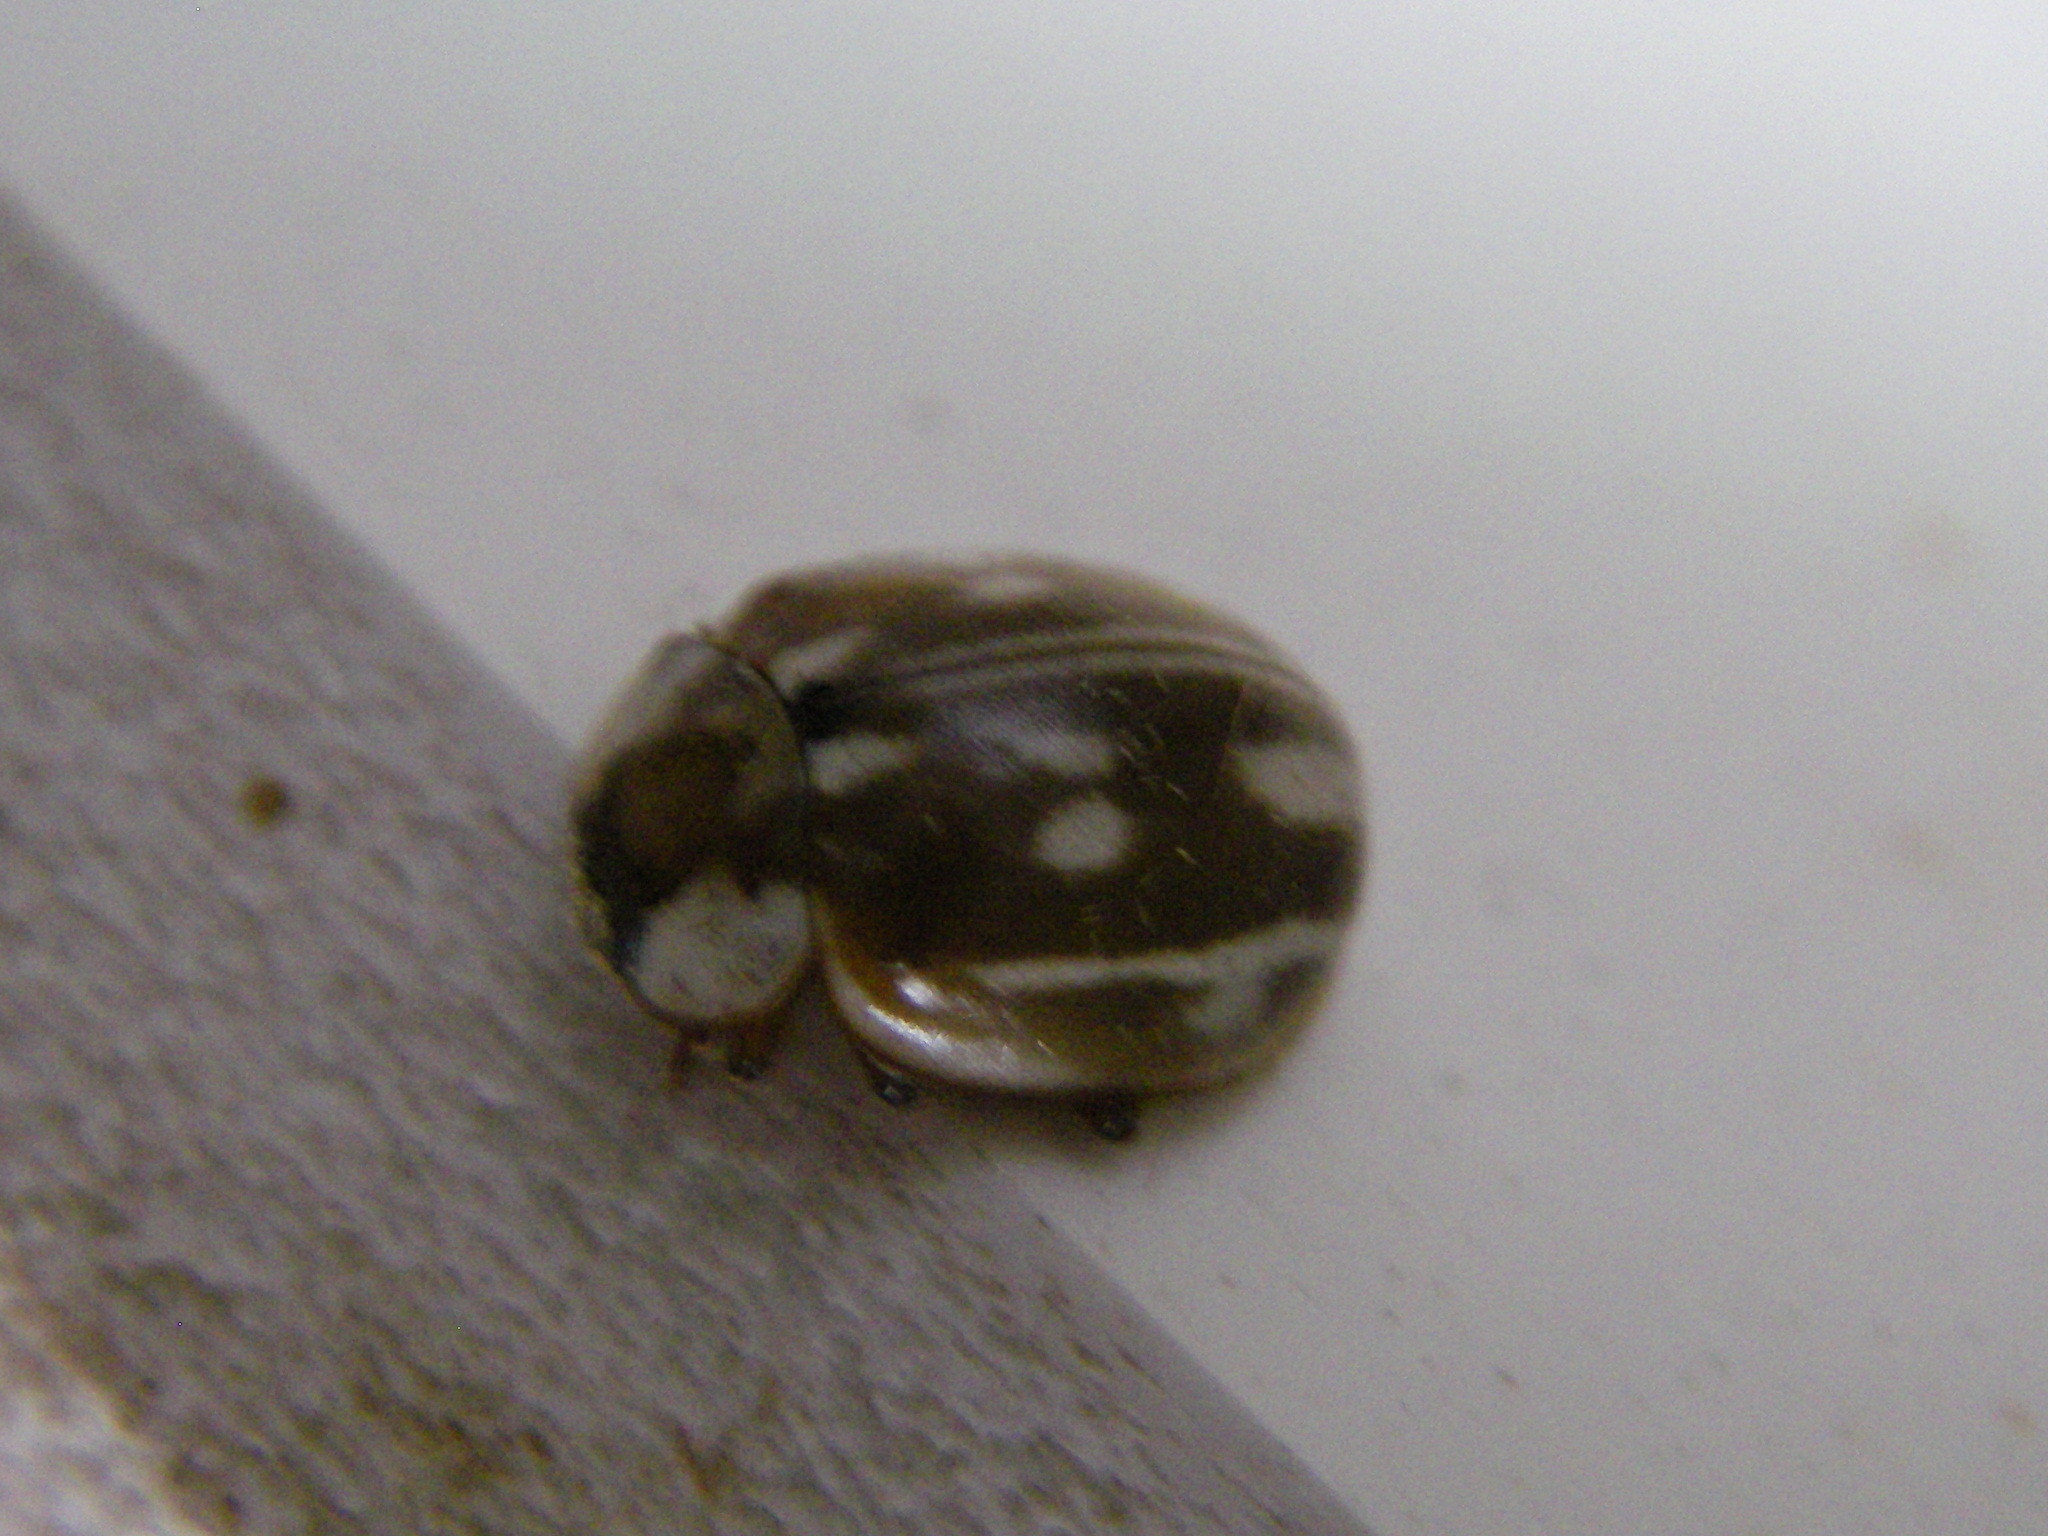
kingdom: Animalia
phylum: Arthropoda
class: Insecta
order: Coleoptera
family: Coccinellidae
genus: Myzia
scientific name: Myzia oblongoguttata
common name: Striped ladybird
